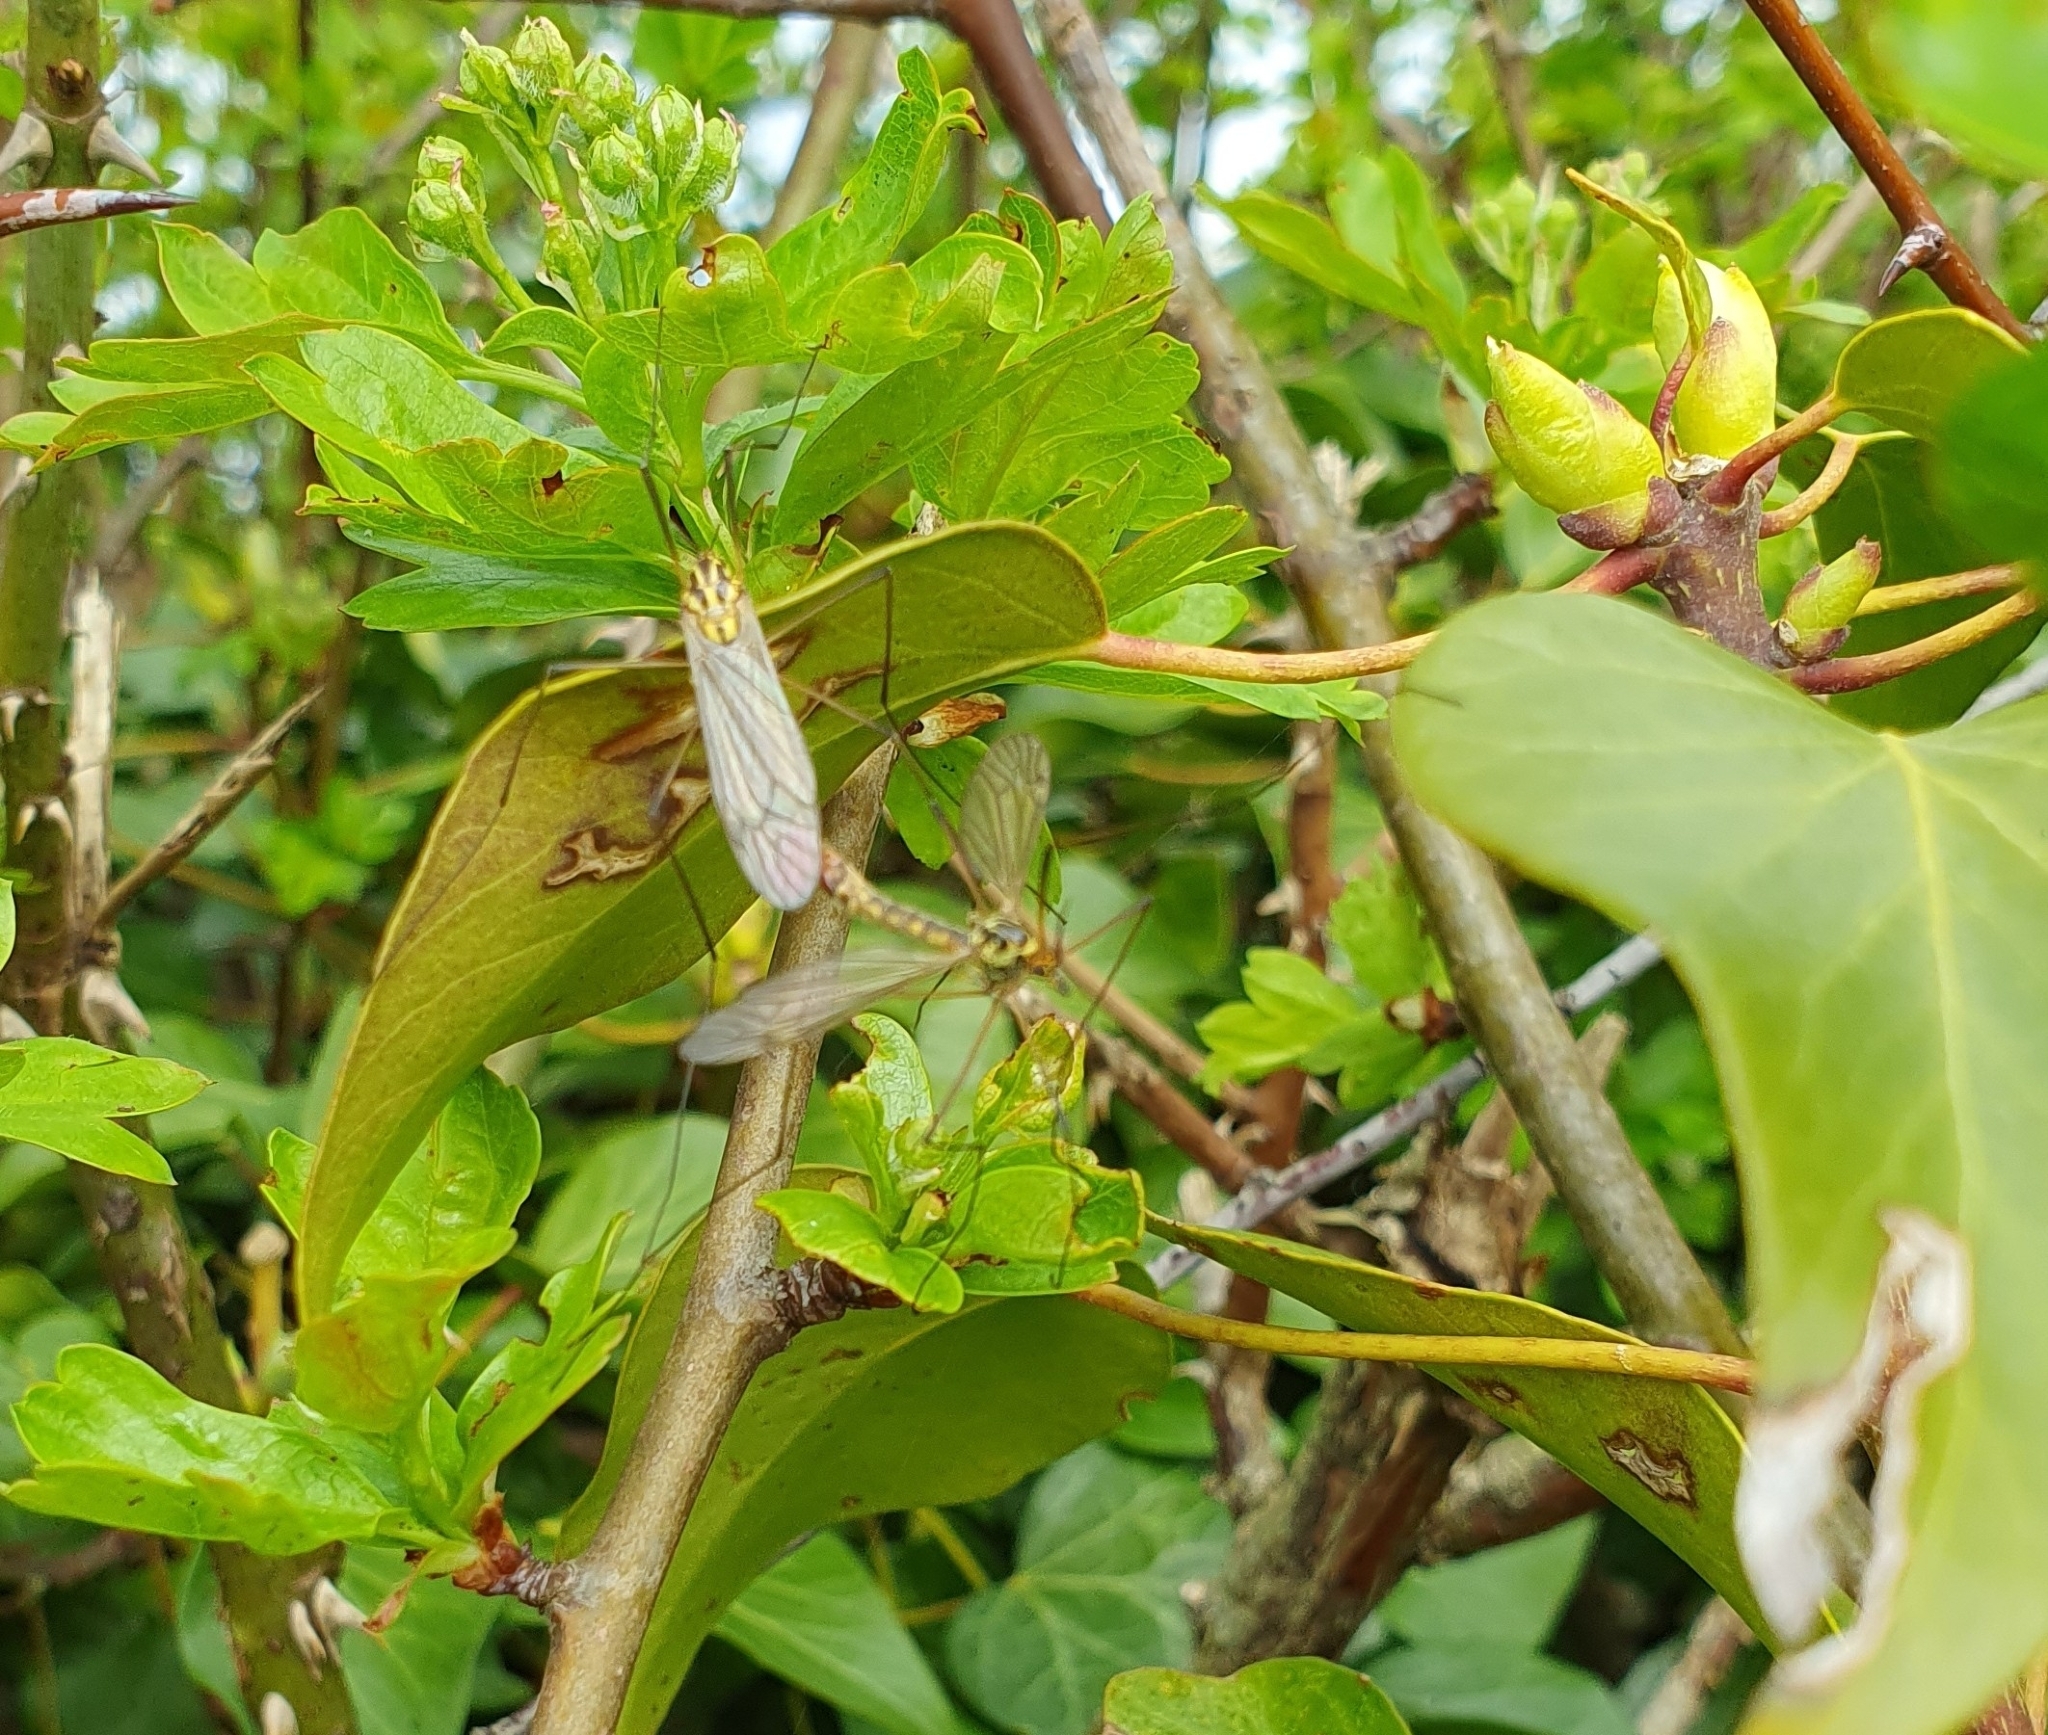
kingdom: Animalia
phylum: Arthropoda
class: Insecta
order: Diptera
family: Tipulidae
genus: Nephrotoma
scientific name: Nephrotoma appendiculata
